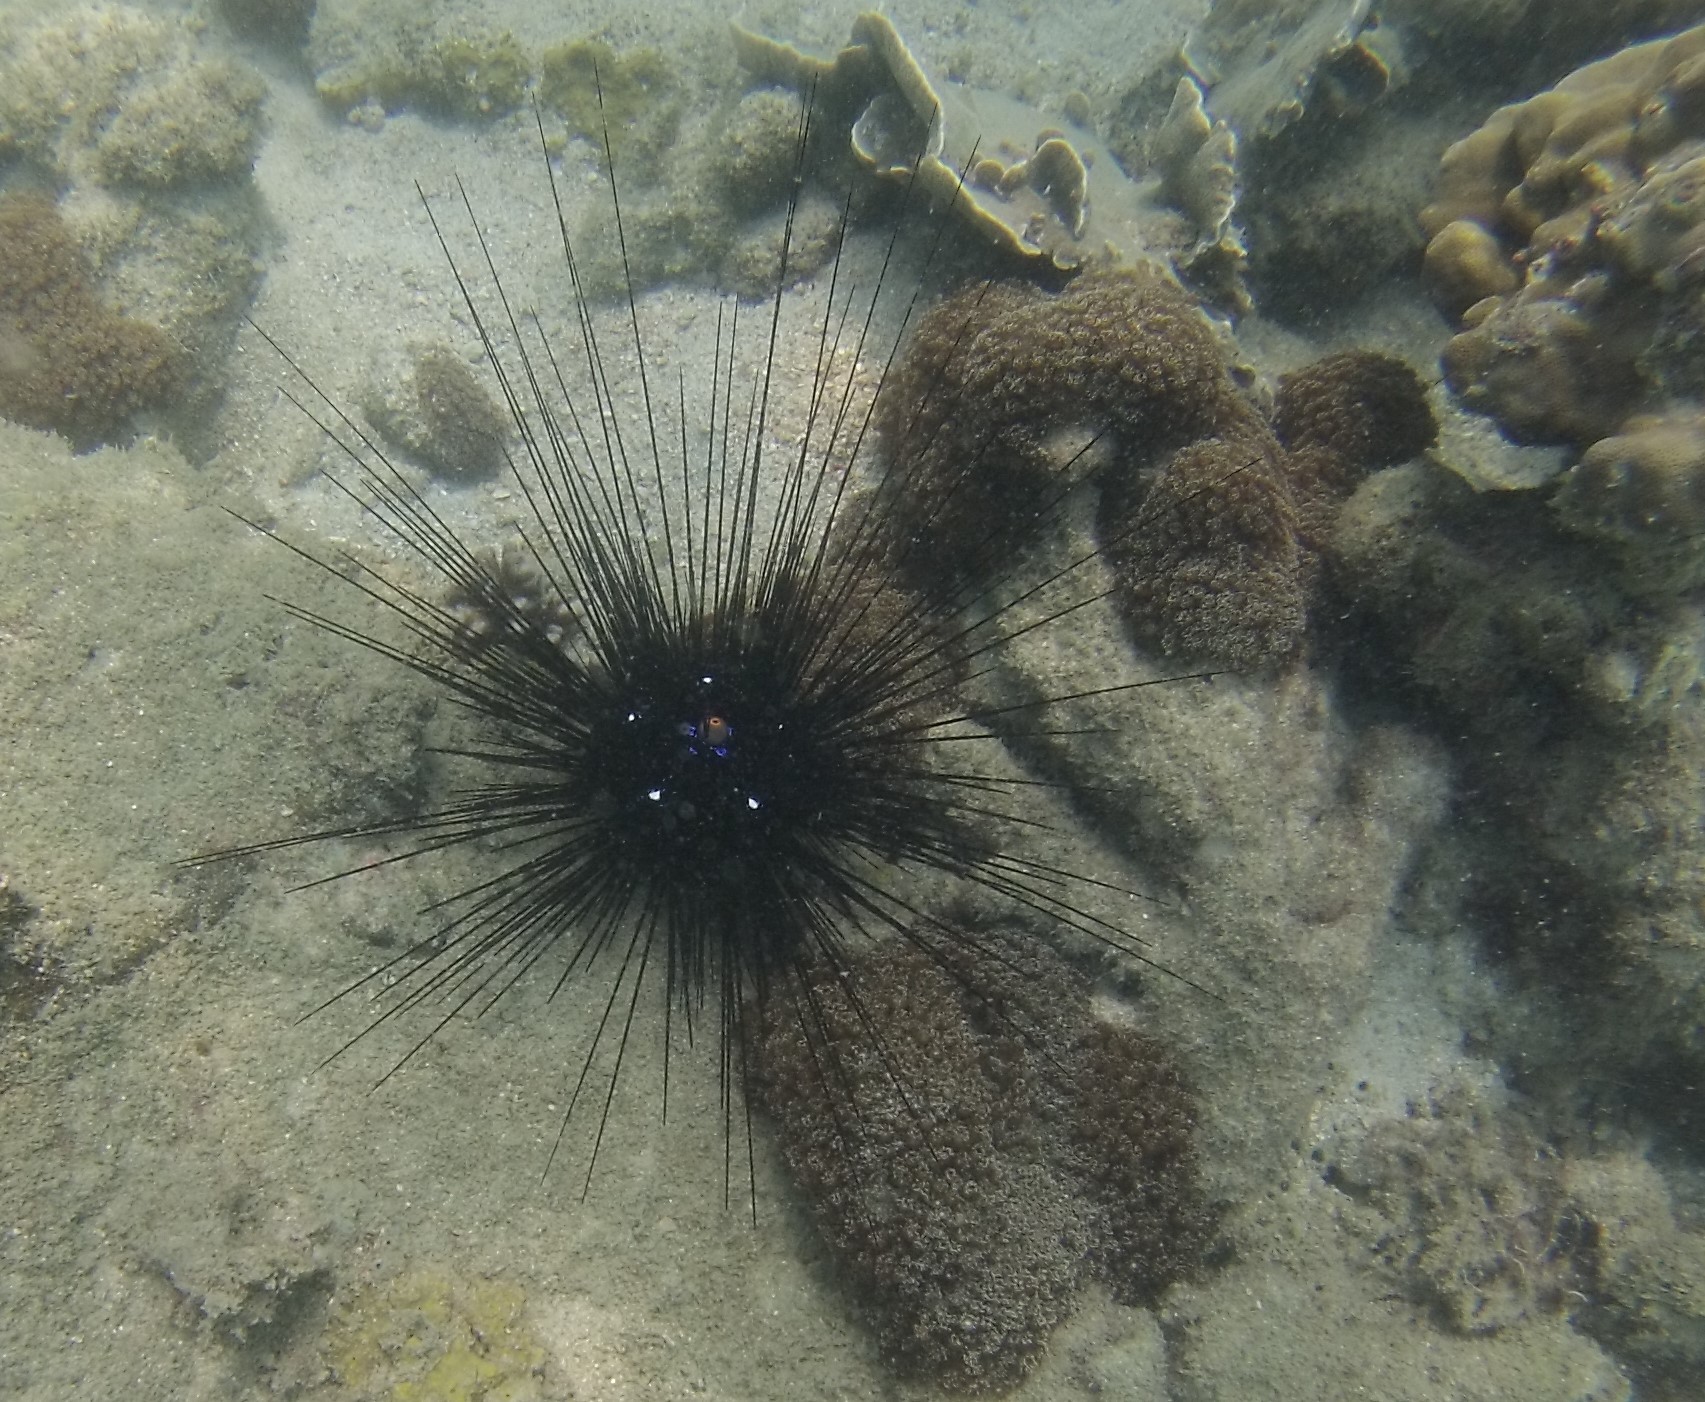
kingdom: Animalia
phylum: Echinodermata
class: Echinoidea
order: Diadematoida
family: Diadematidae
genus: Diadema
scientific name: Diadema setosum
